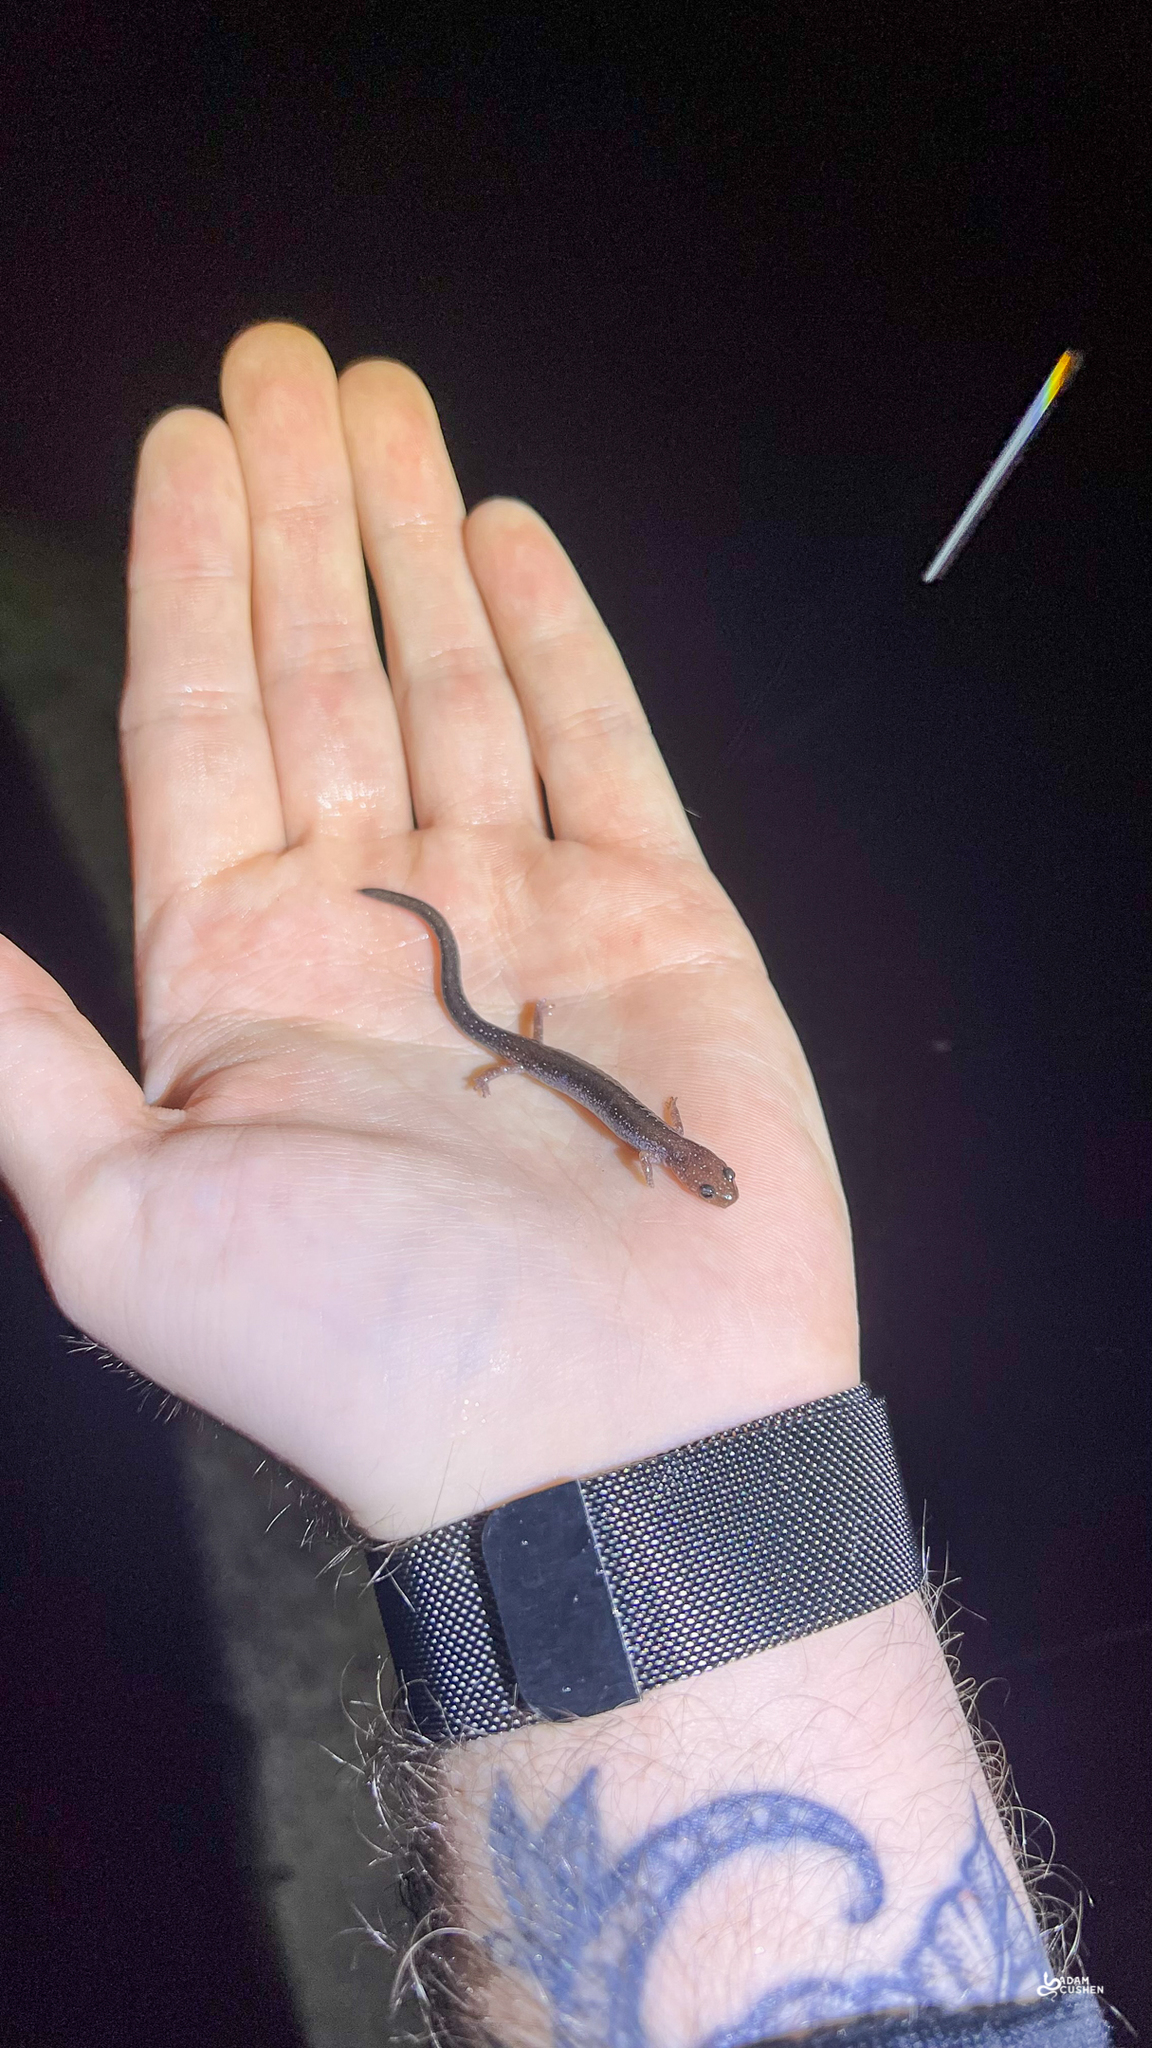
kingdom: Animalia
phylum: Chordata
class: Amphibia
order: Caudata
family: Plethodontidae
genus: Plethodon
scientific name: Plethodon cinereus
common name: Redback salamander
